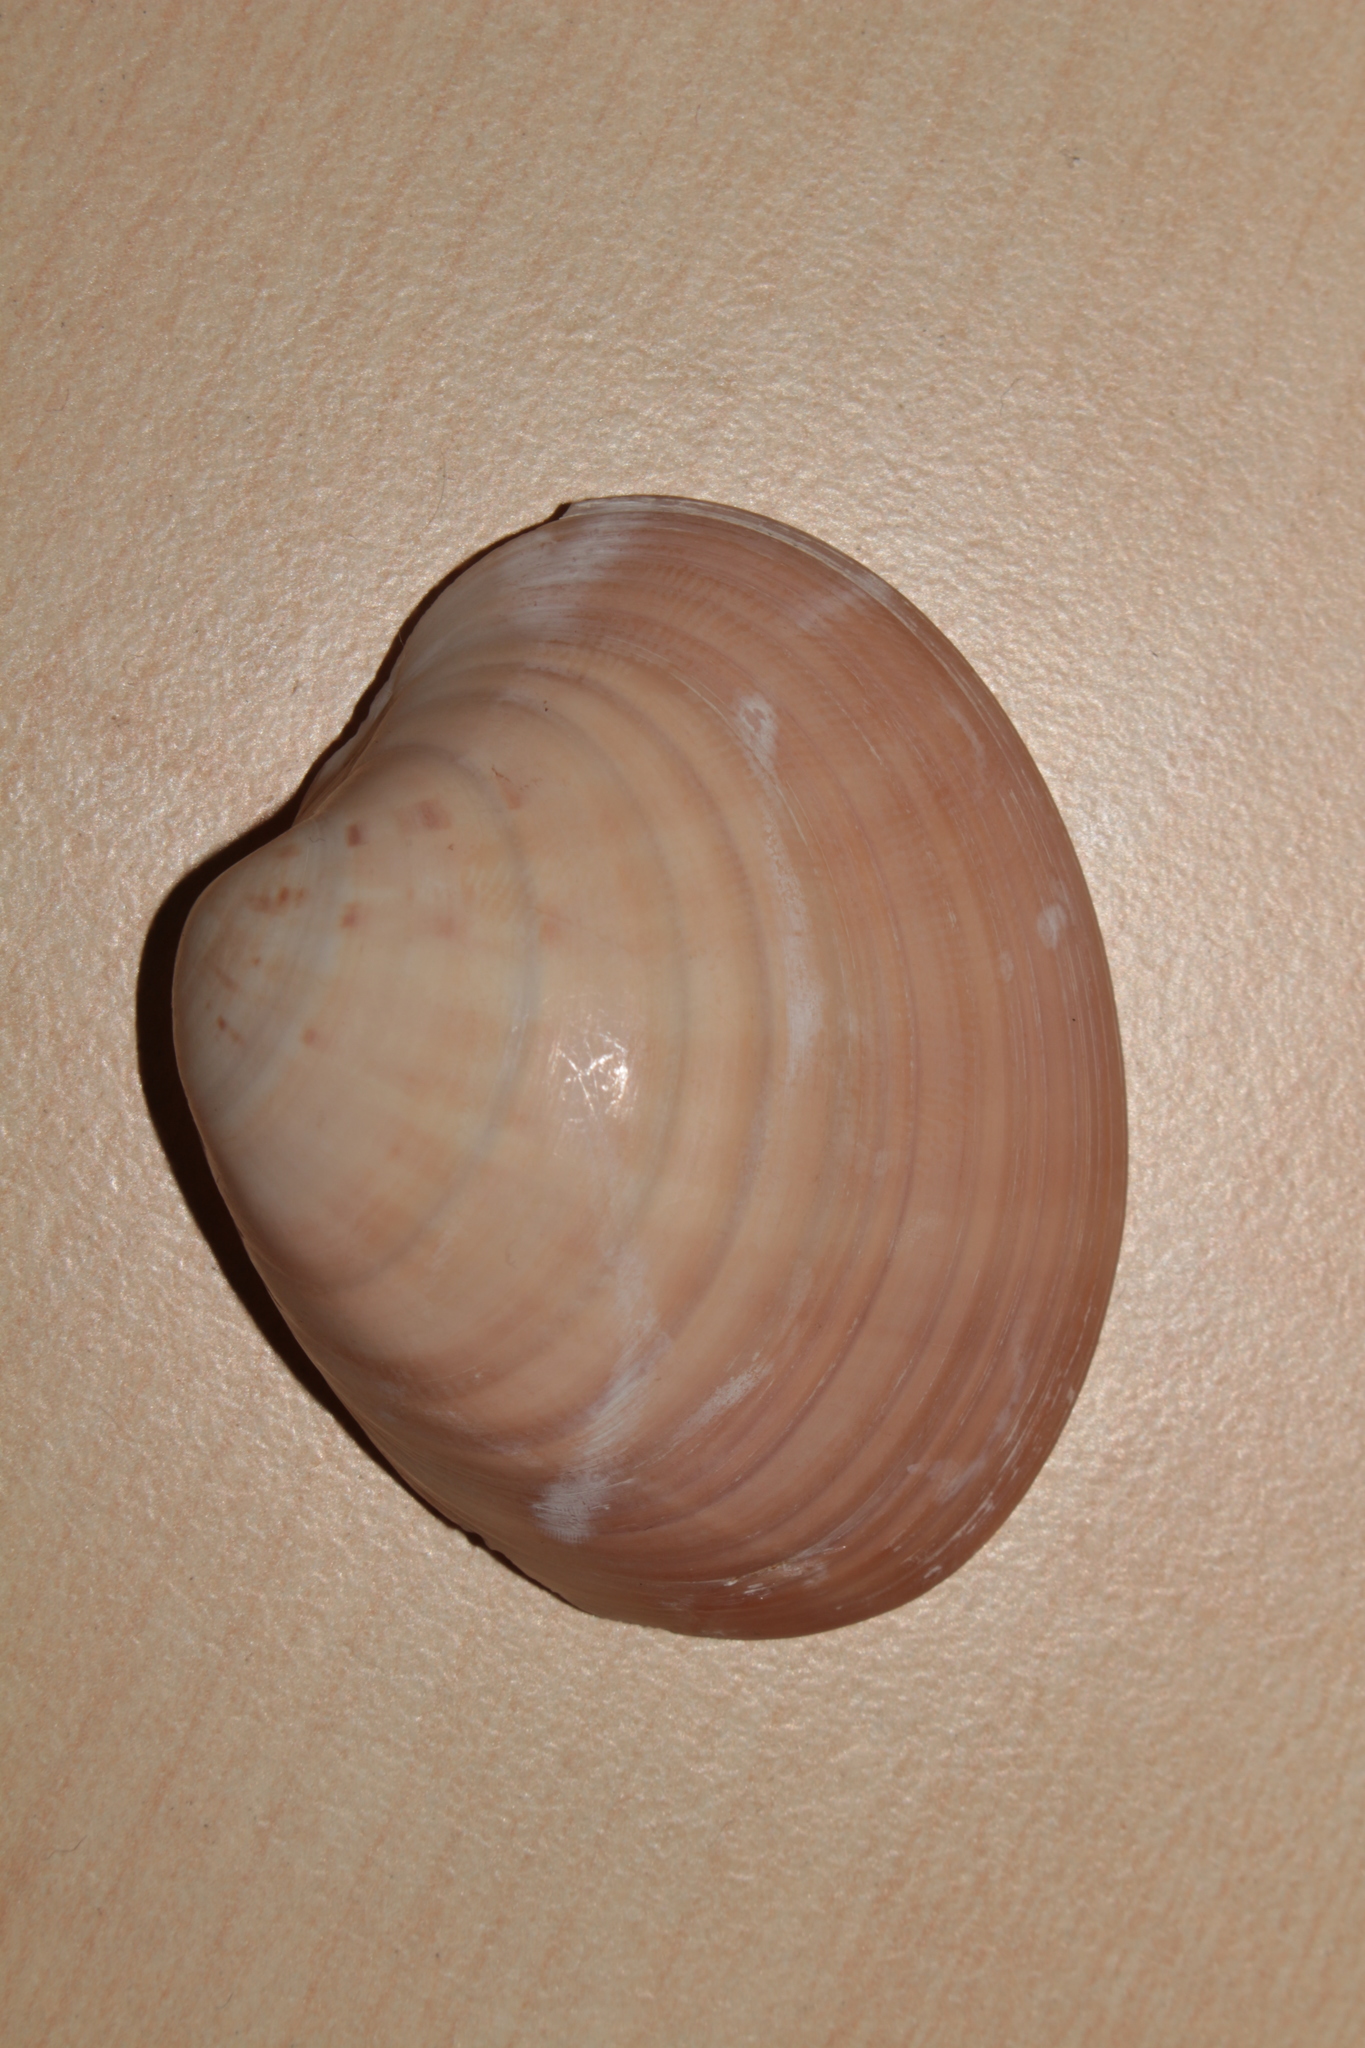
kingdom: Animalia
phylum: Mollusca
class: Bivalvia
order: Venerida
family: Veneridae
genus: Callista
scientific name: Callista chione
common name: Brown venus
